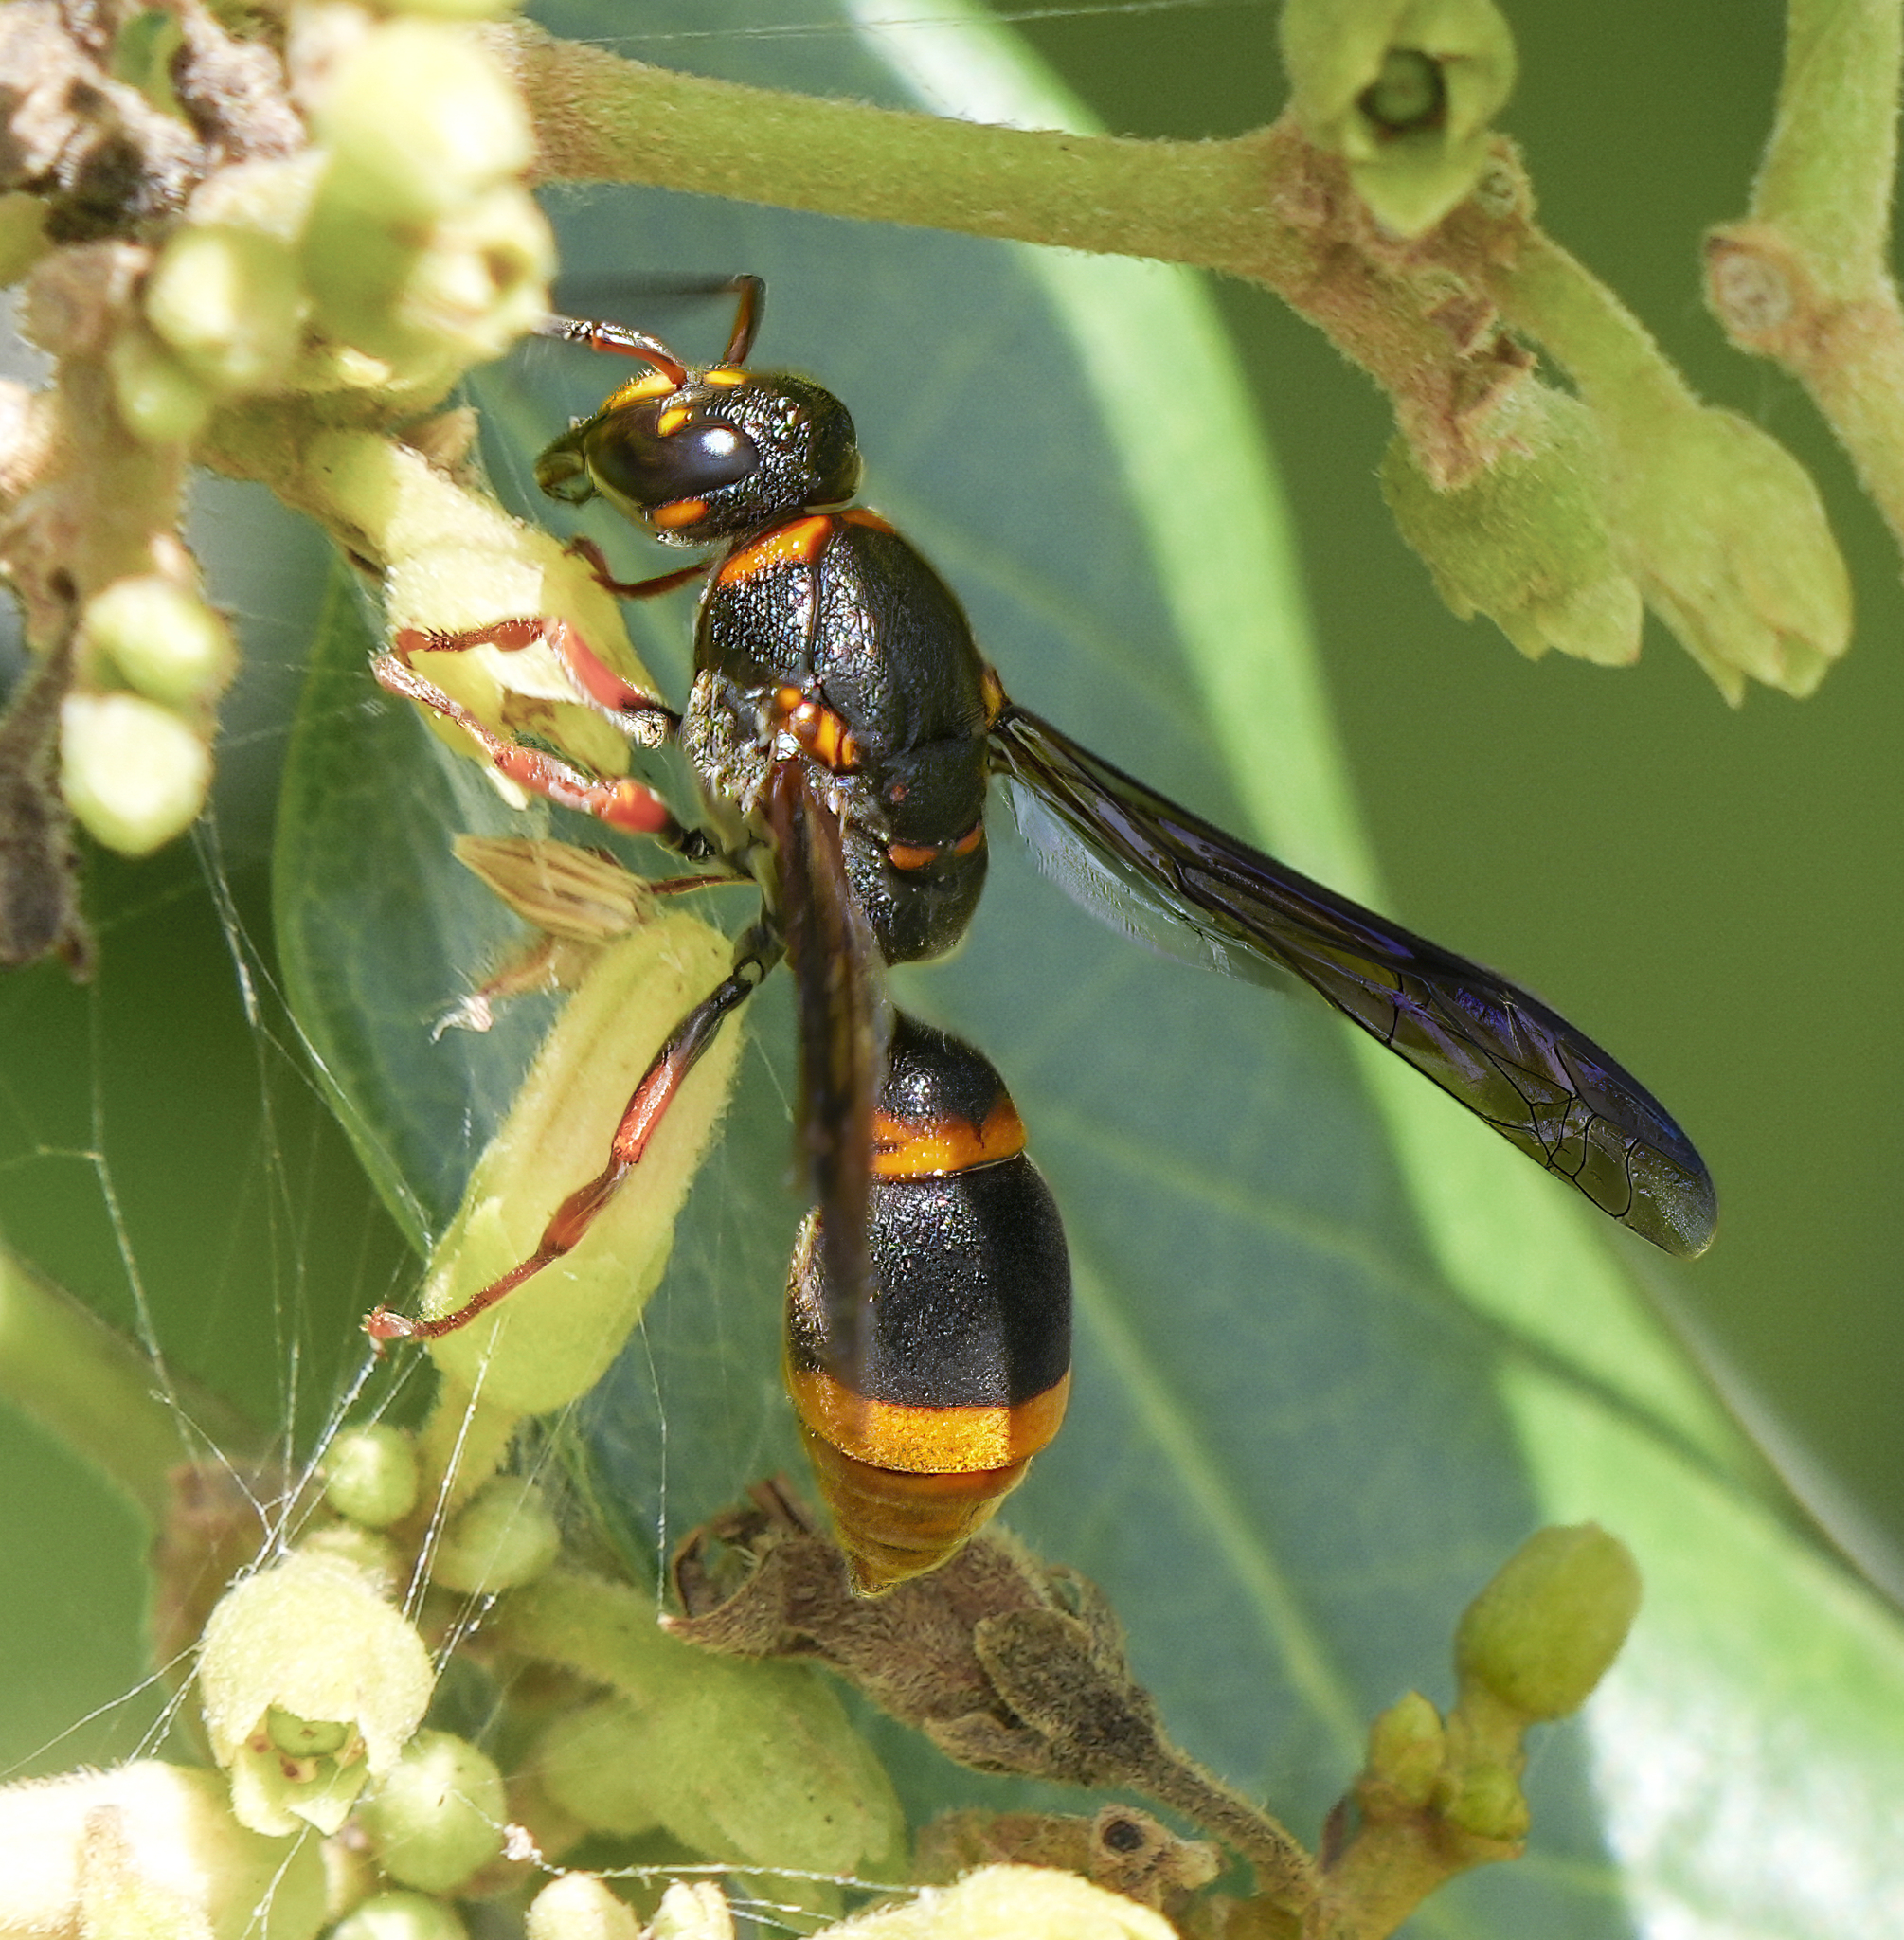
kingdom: Animalia
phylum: Arthropoda
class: Insecta
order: Hymenoptera
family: Eumenidae
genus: Acarozumia
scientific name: Acarozumia amaliae
